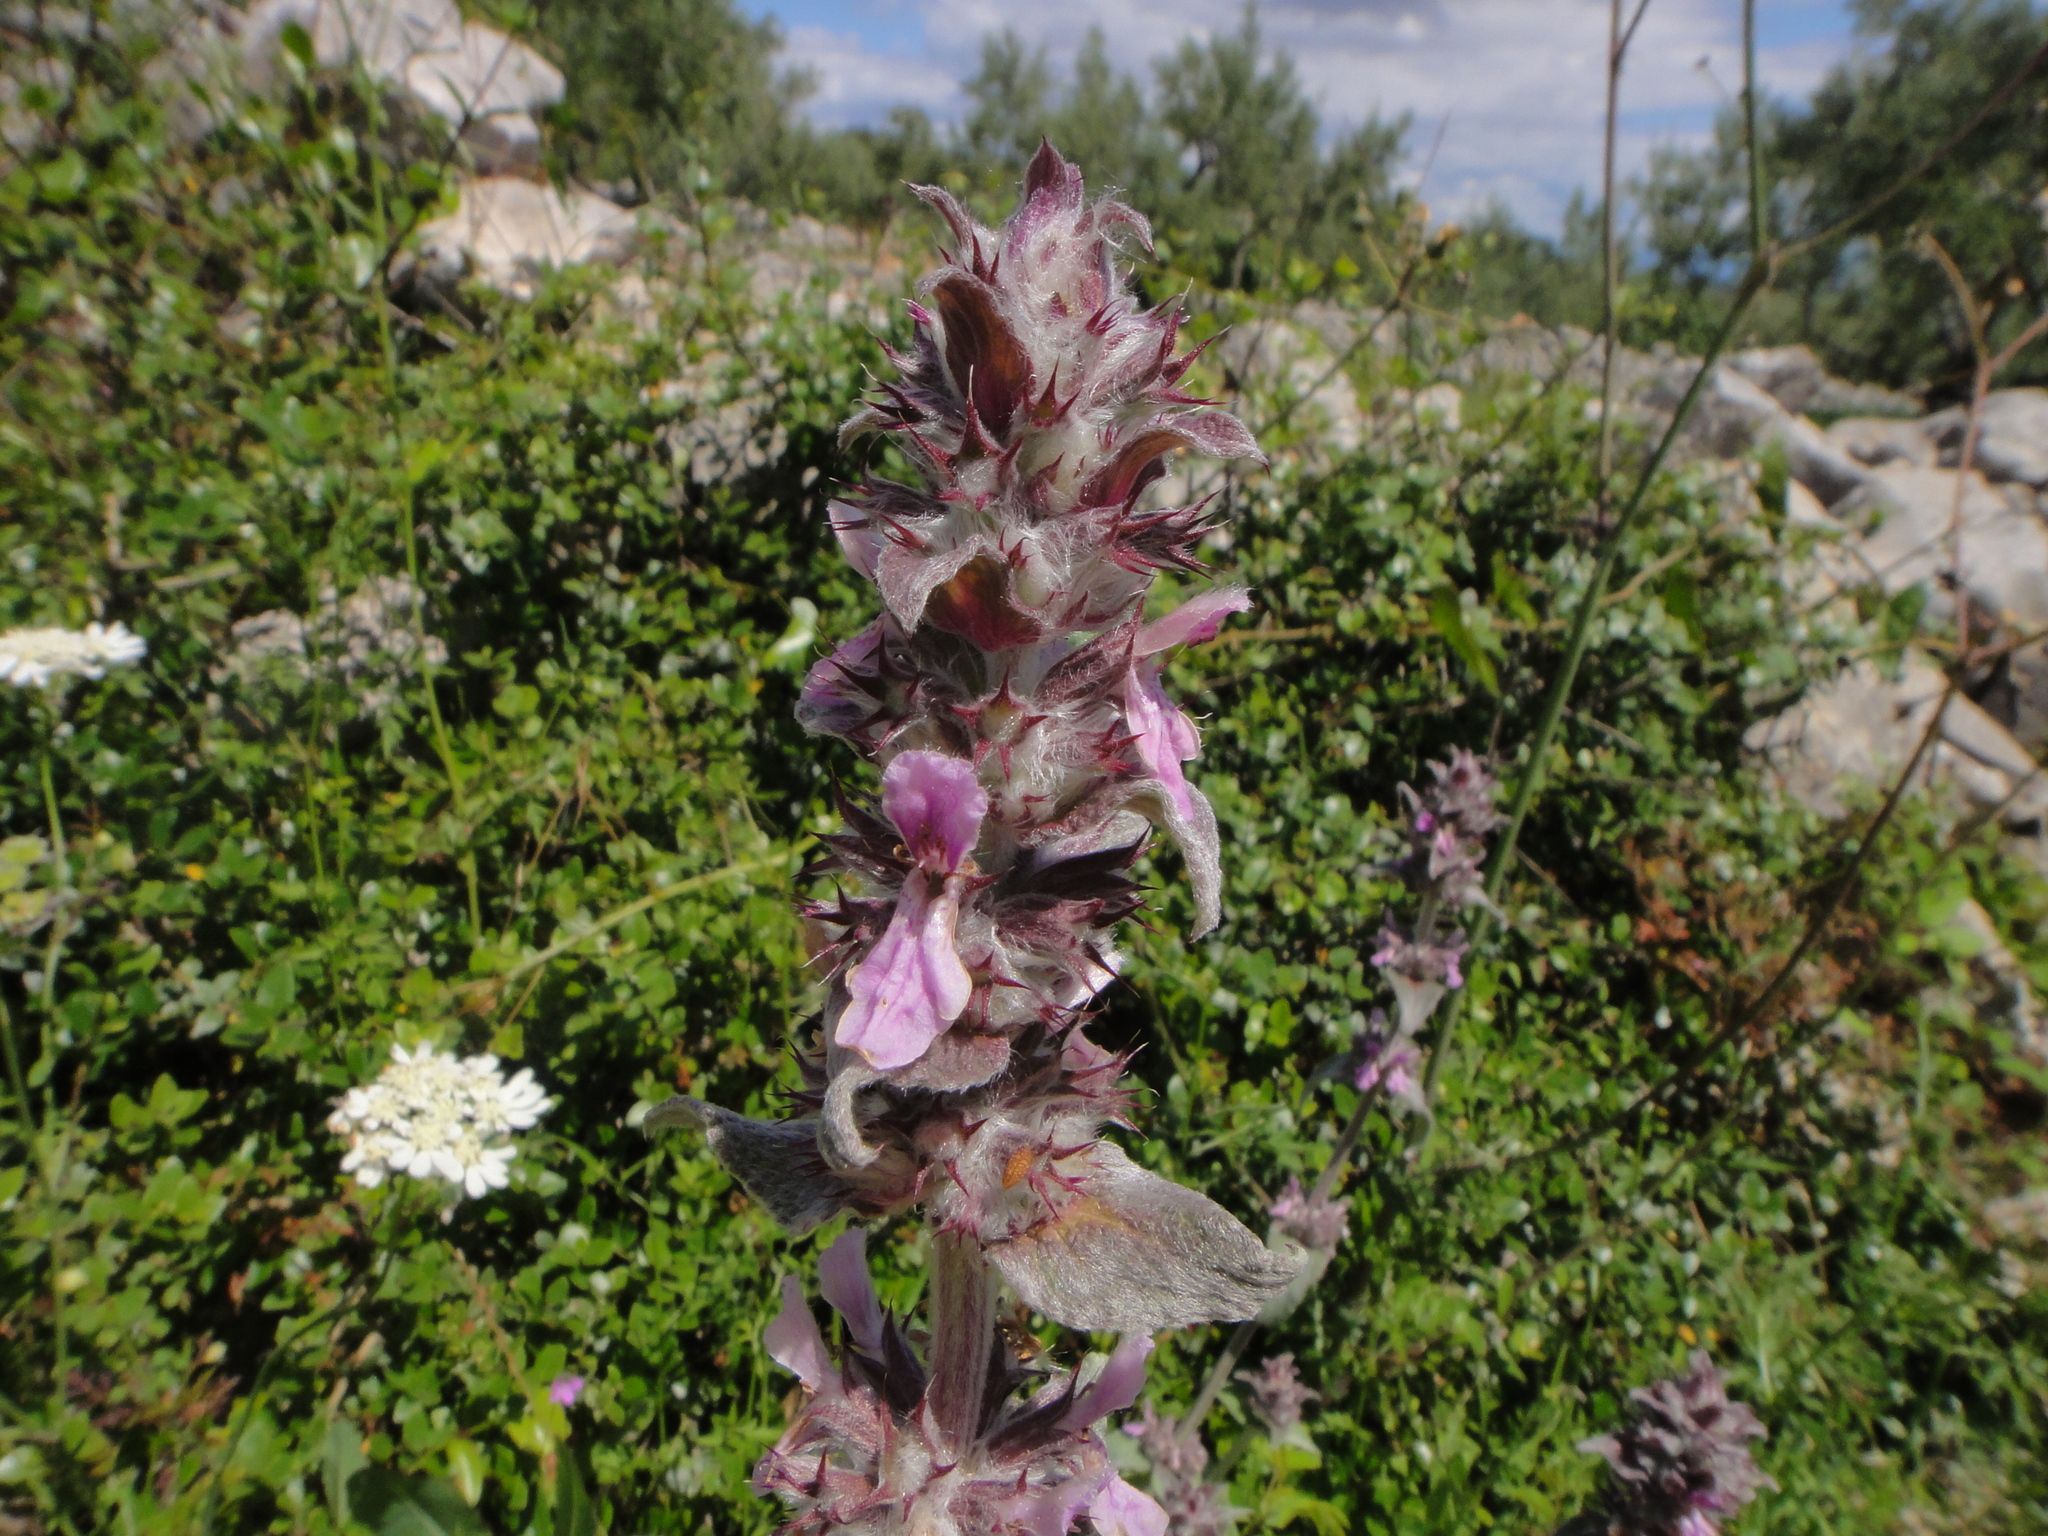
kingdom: Plantae
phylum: Tracheophyta
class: Magnoliopsida
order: Lamiales
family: Lamiaceae
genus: Stachys
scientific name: Stachys cretica
